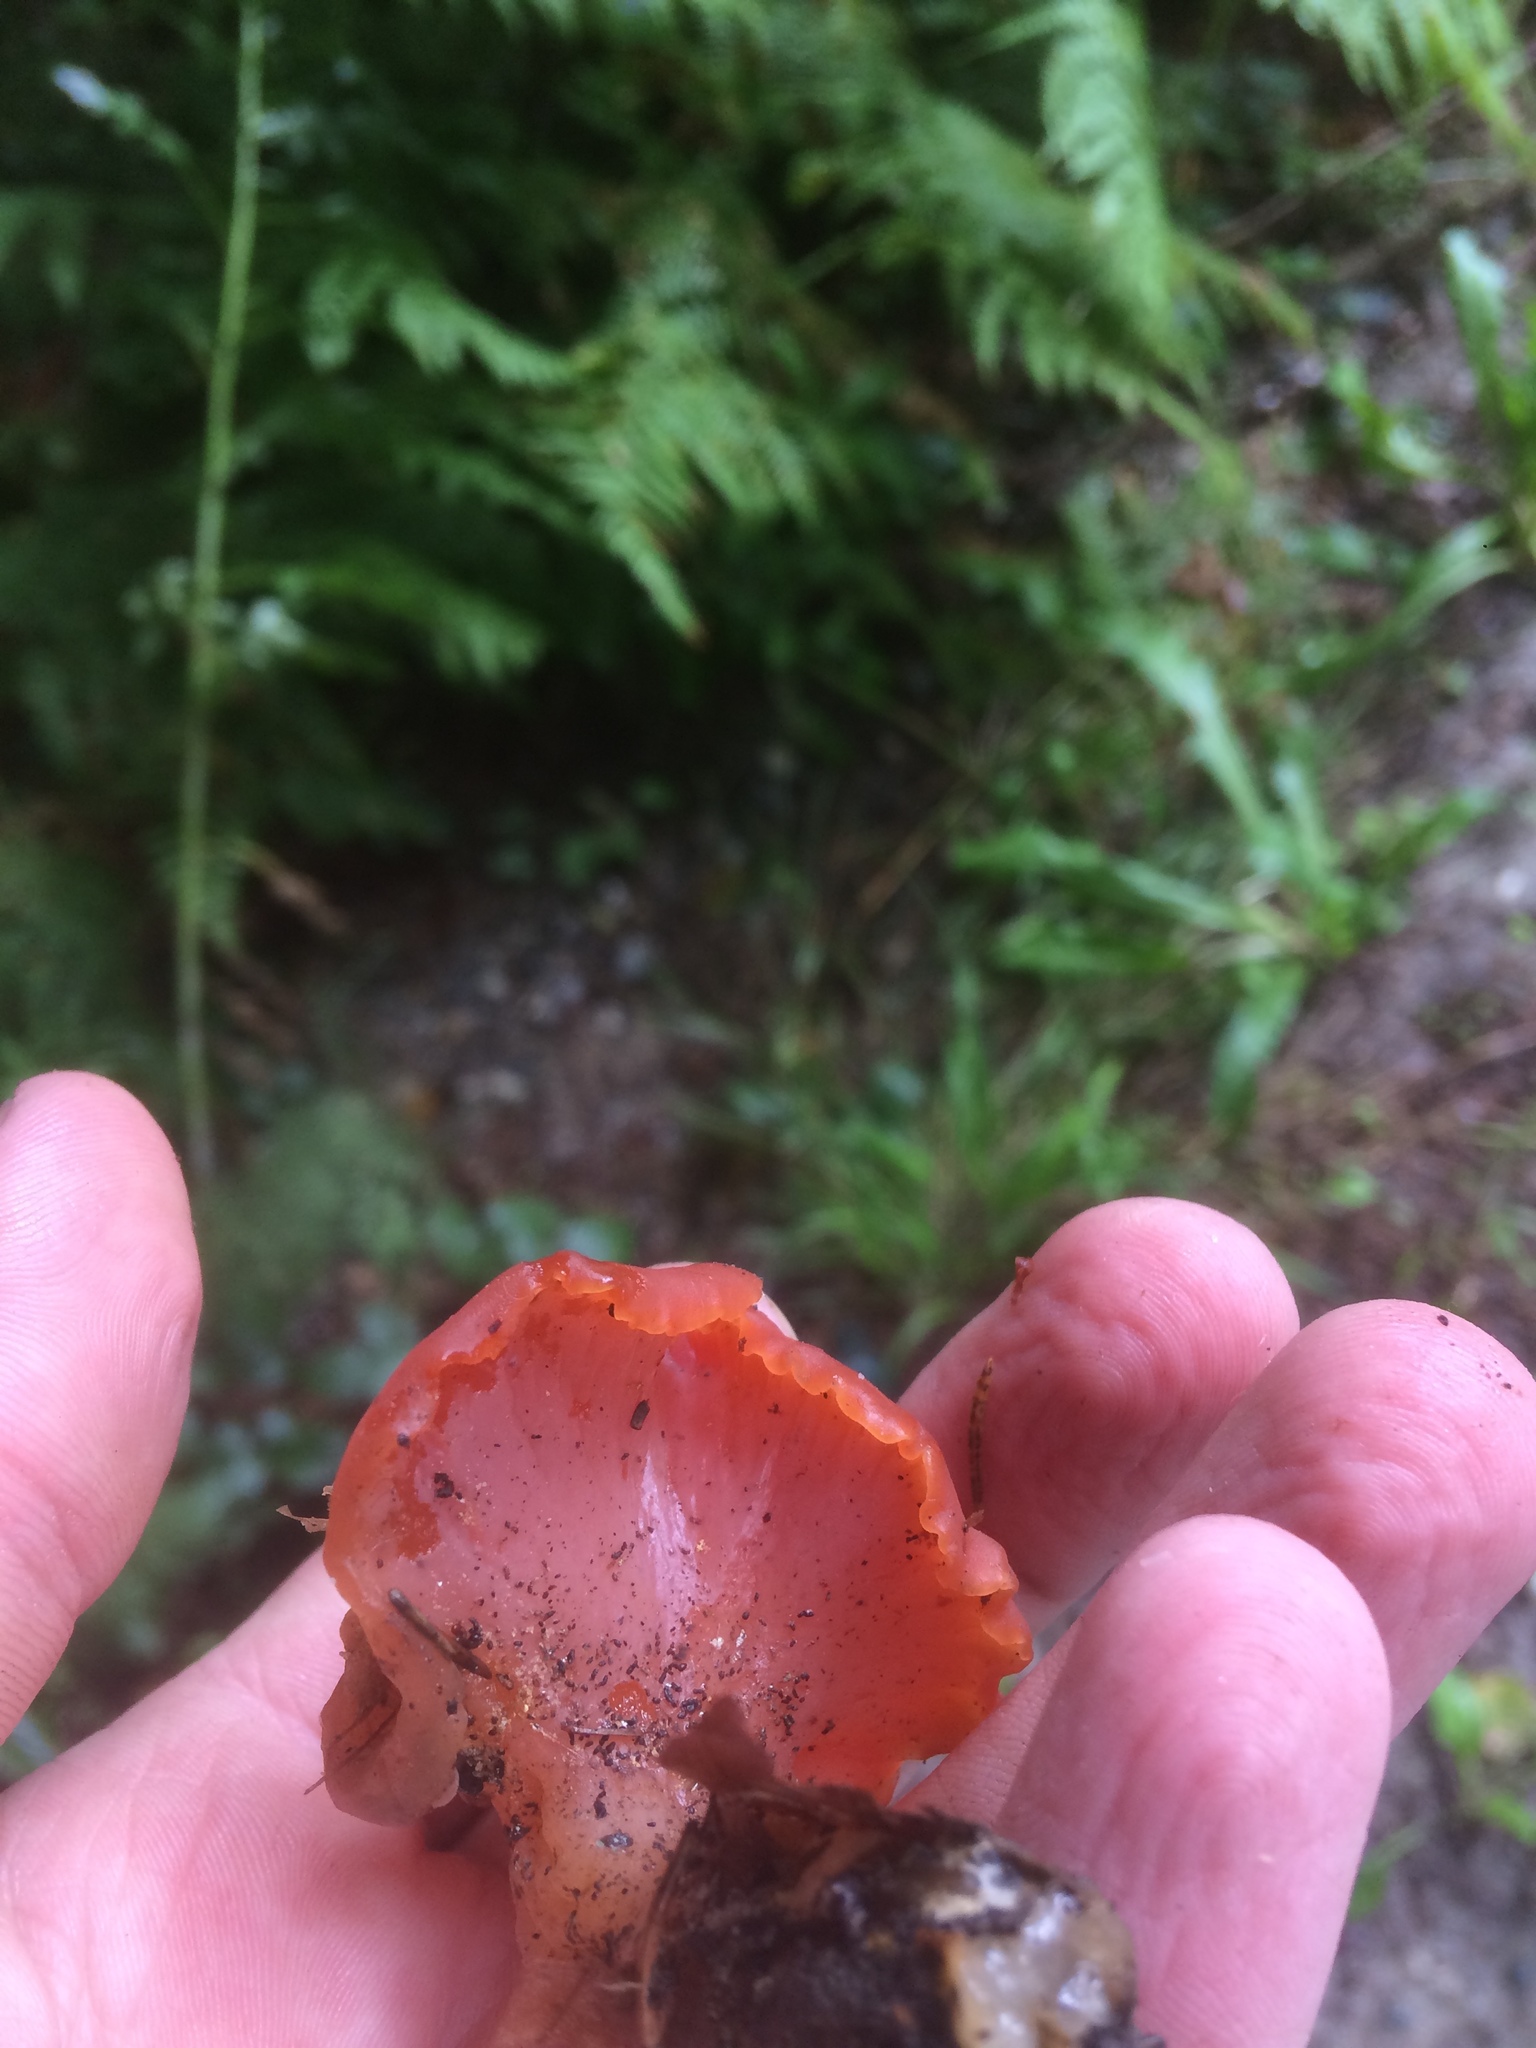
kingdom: Fungi
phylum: Basidiomycota
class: Agaricomycetes
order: Auriculariales
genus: Guepinia
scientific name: Guepinia helvelloides
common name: Salmon salad
